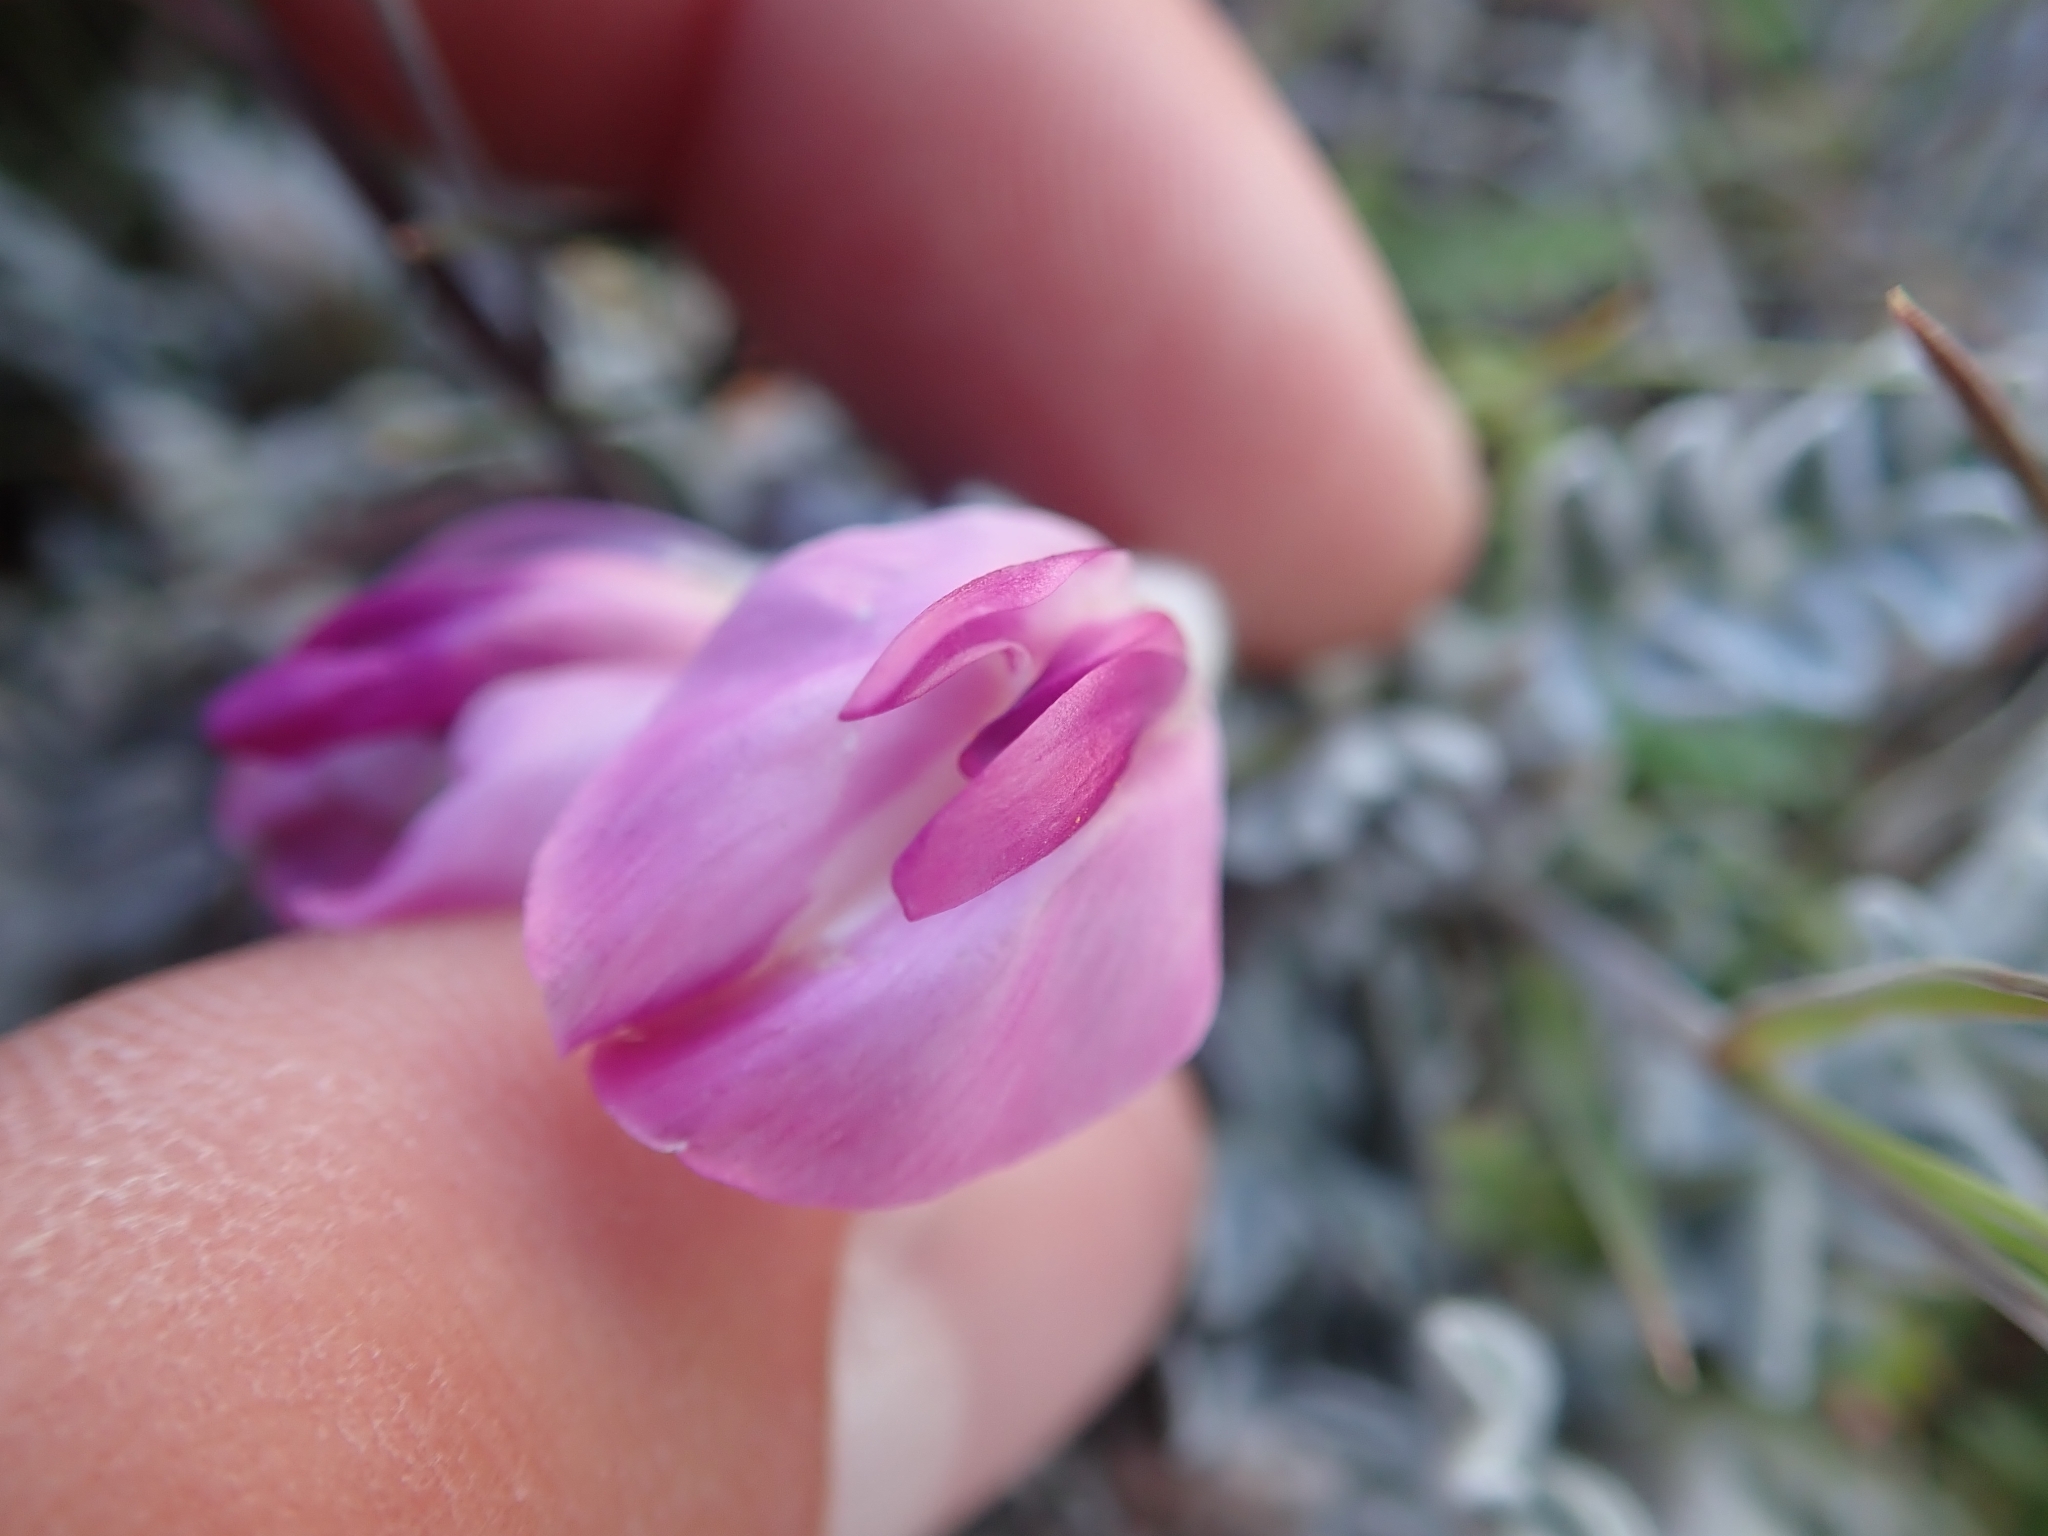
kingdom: Plantae
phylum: Tracheophyta
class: Magnoliopsida
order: Fabales
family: Fabaceae
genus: Astragalus
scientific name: Astragalus utahensis
